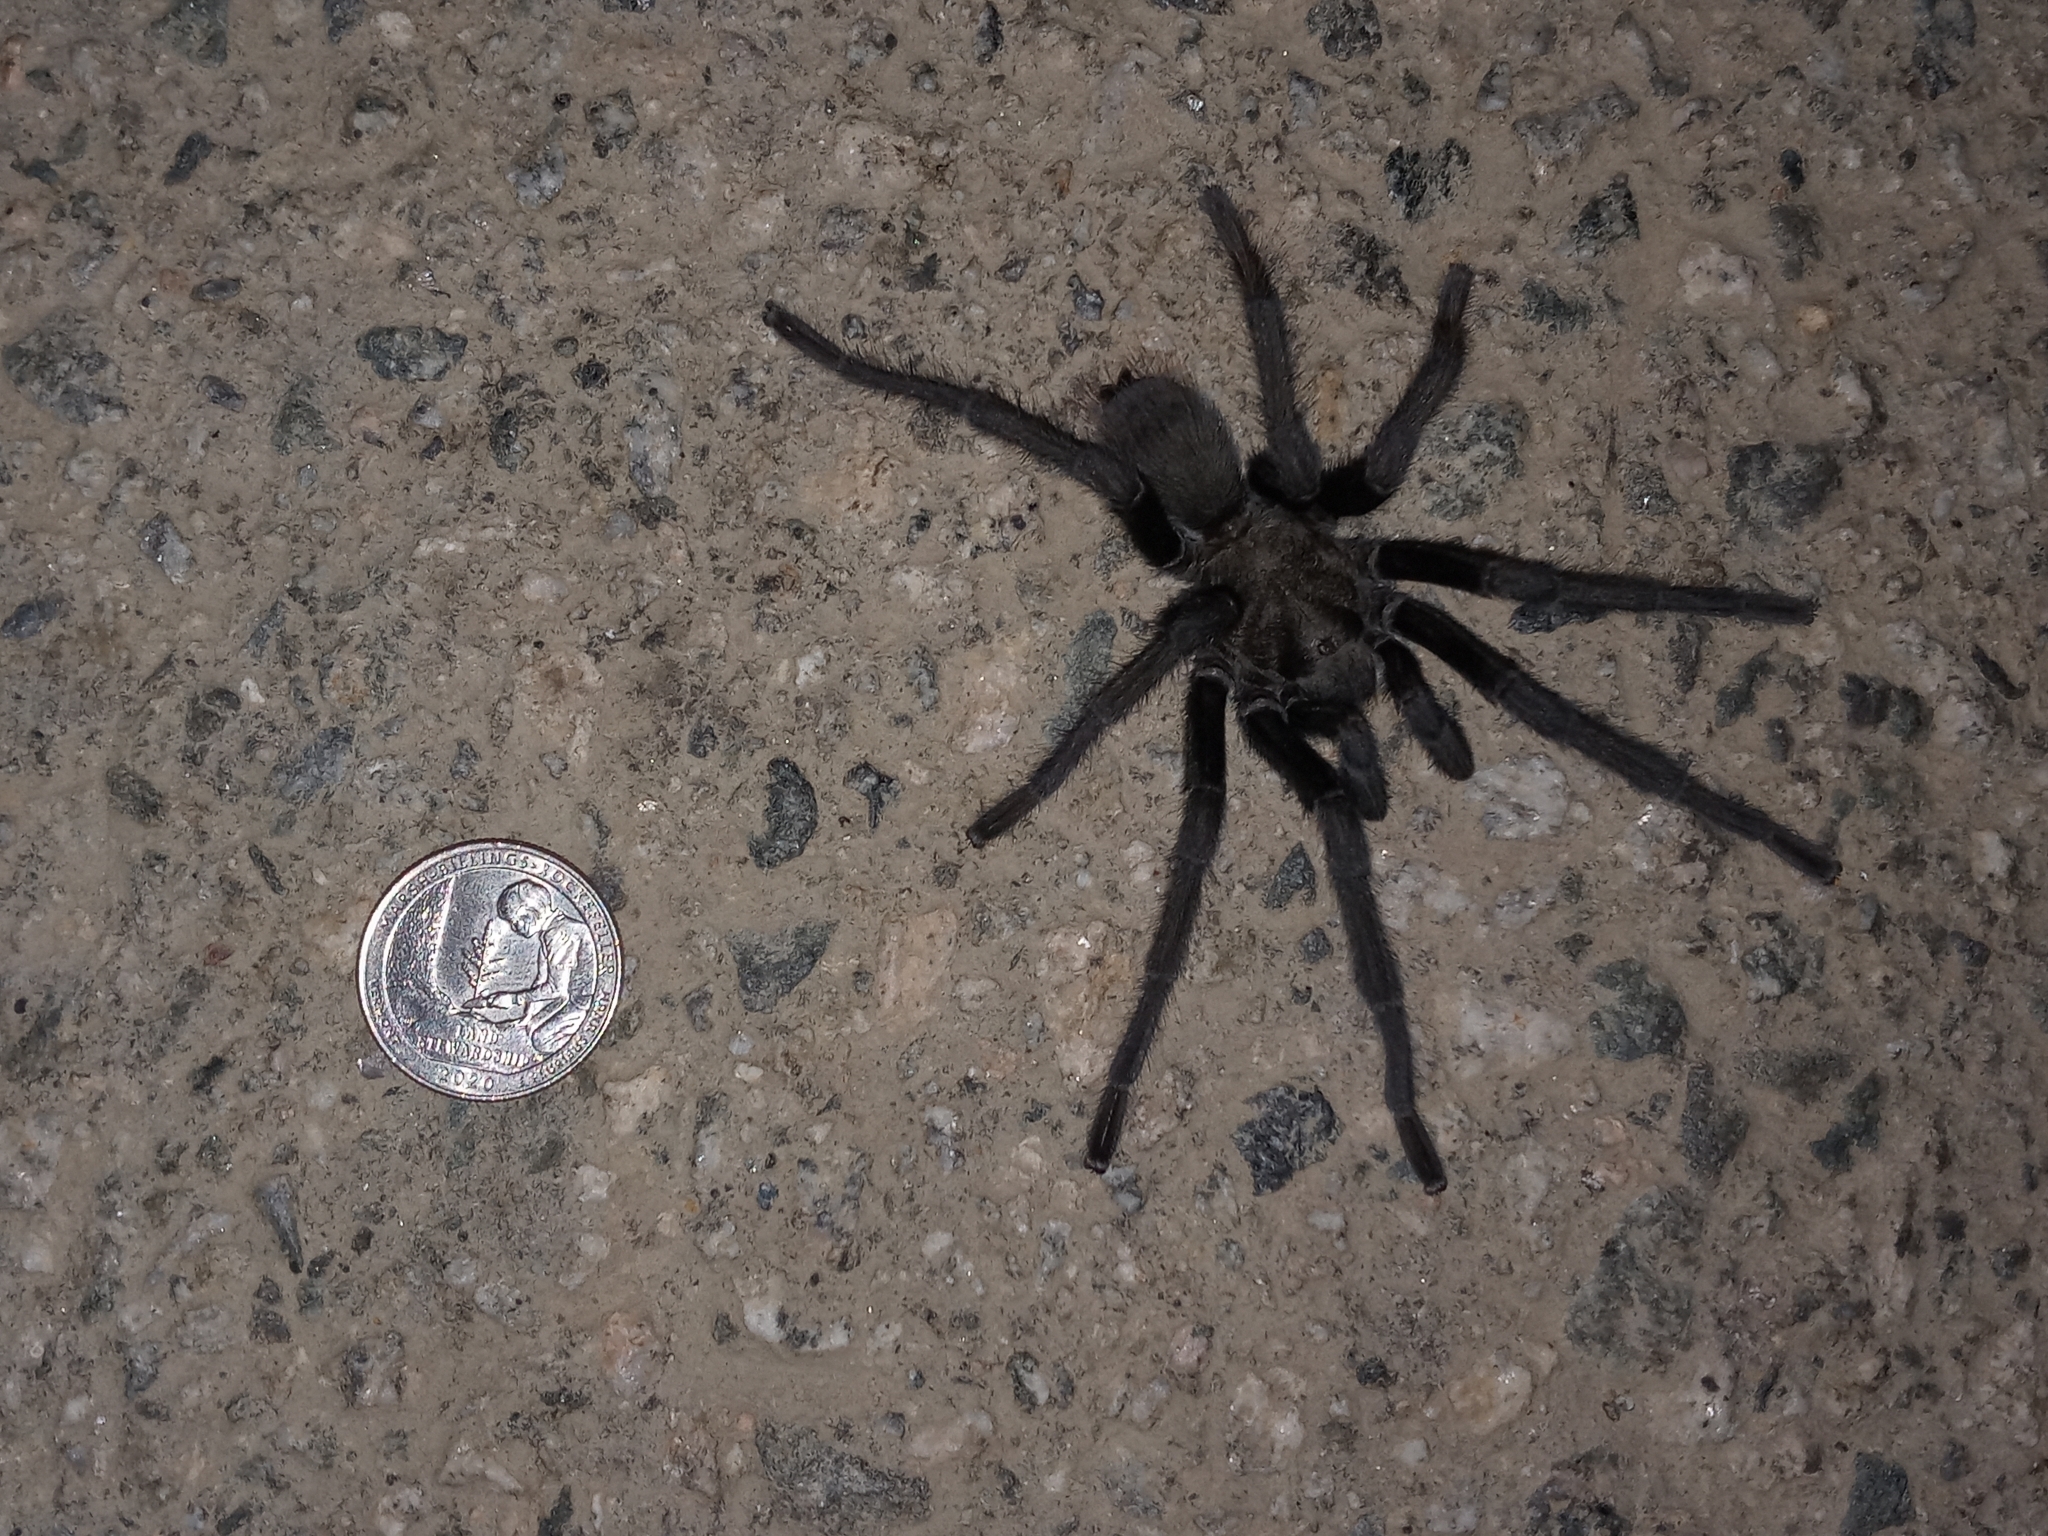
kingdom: Animalia
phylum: Arthropoda
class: Arachnida
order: Araneae
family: Theraphosidae
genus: Aphonopelma
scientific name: Aphonopelma steindachneri
